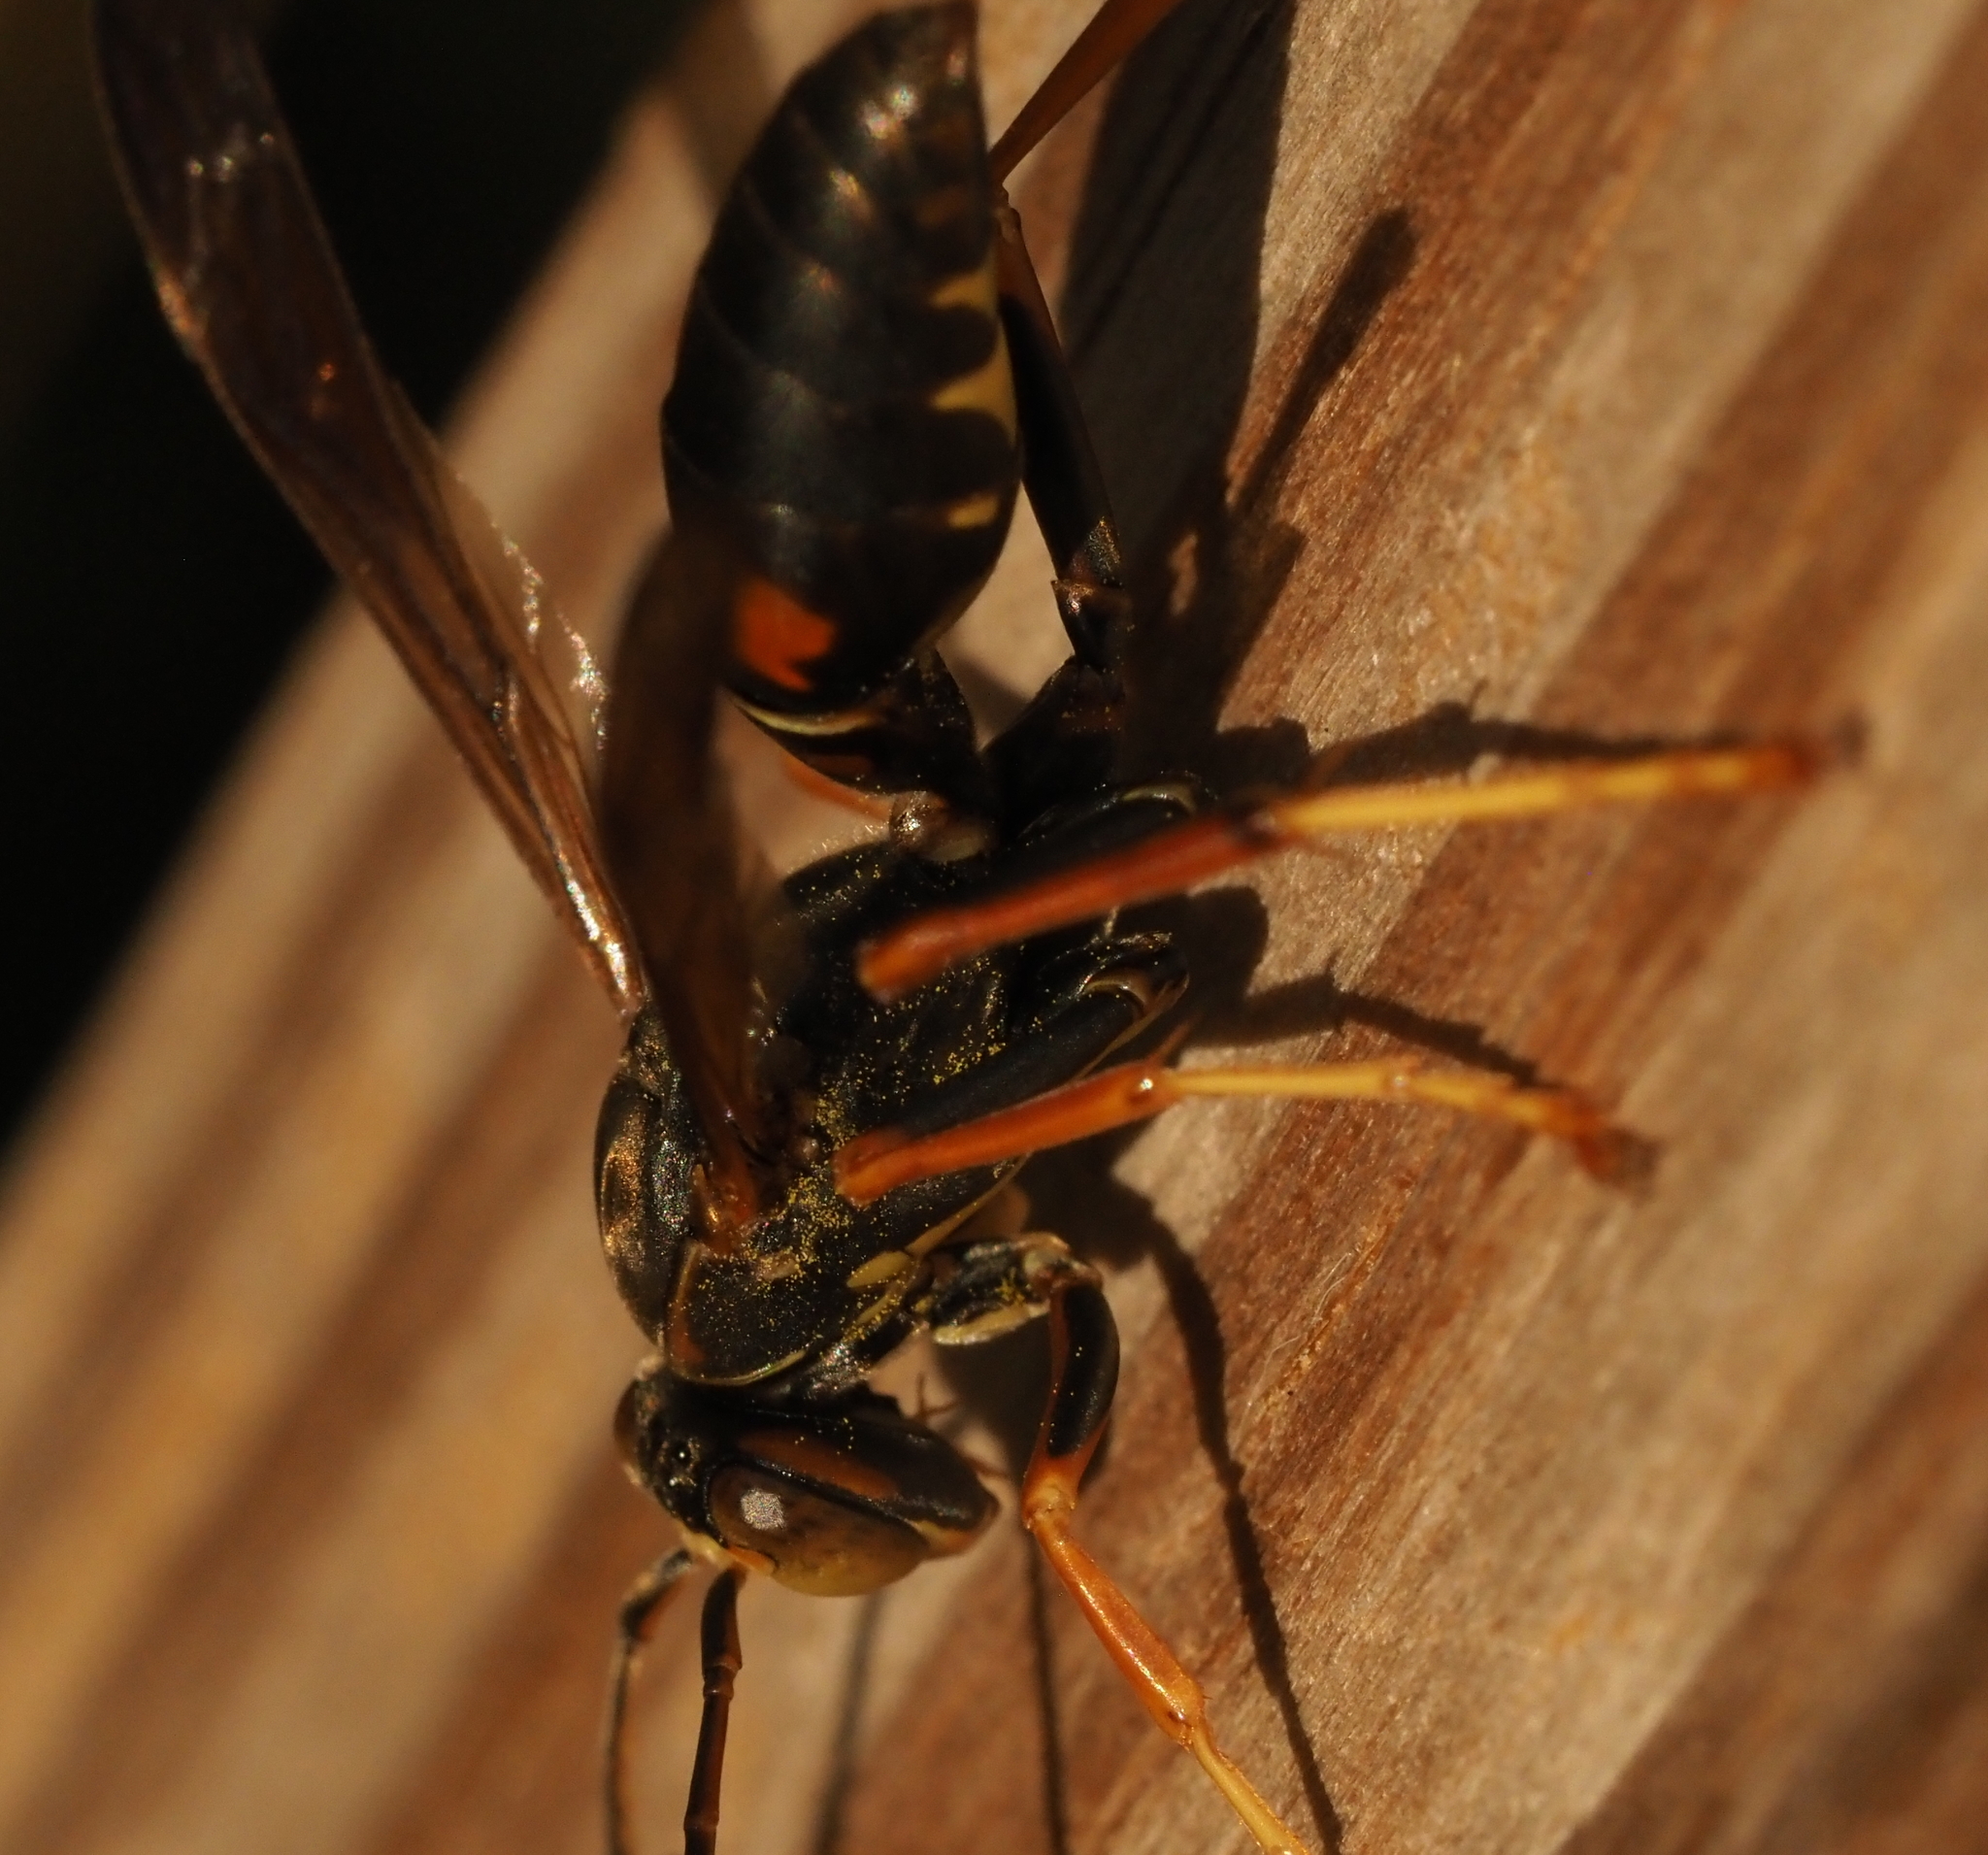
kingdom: Animalia
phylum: Arthropoda
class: Insecta
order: Hymenoptera
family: Eumenidae
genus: Polistes
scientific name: Polistes fuscatus
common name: Dark paper wasp
